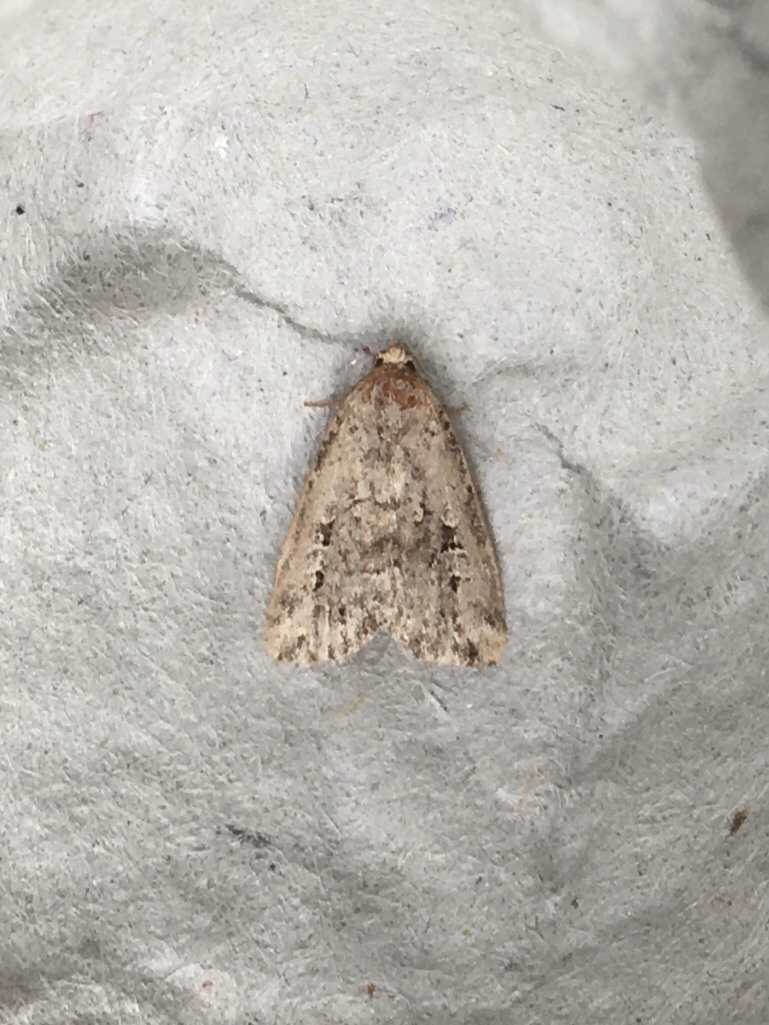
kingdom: Animalia
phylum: Arthropoda
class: Insecta
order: Lepidoptera
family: Noctuidae
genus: Elaphria
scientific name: Elaphria alapallida
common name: Pale-winged midget
